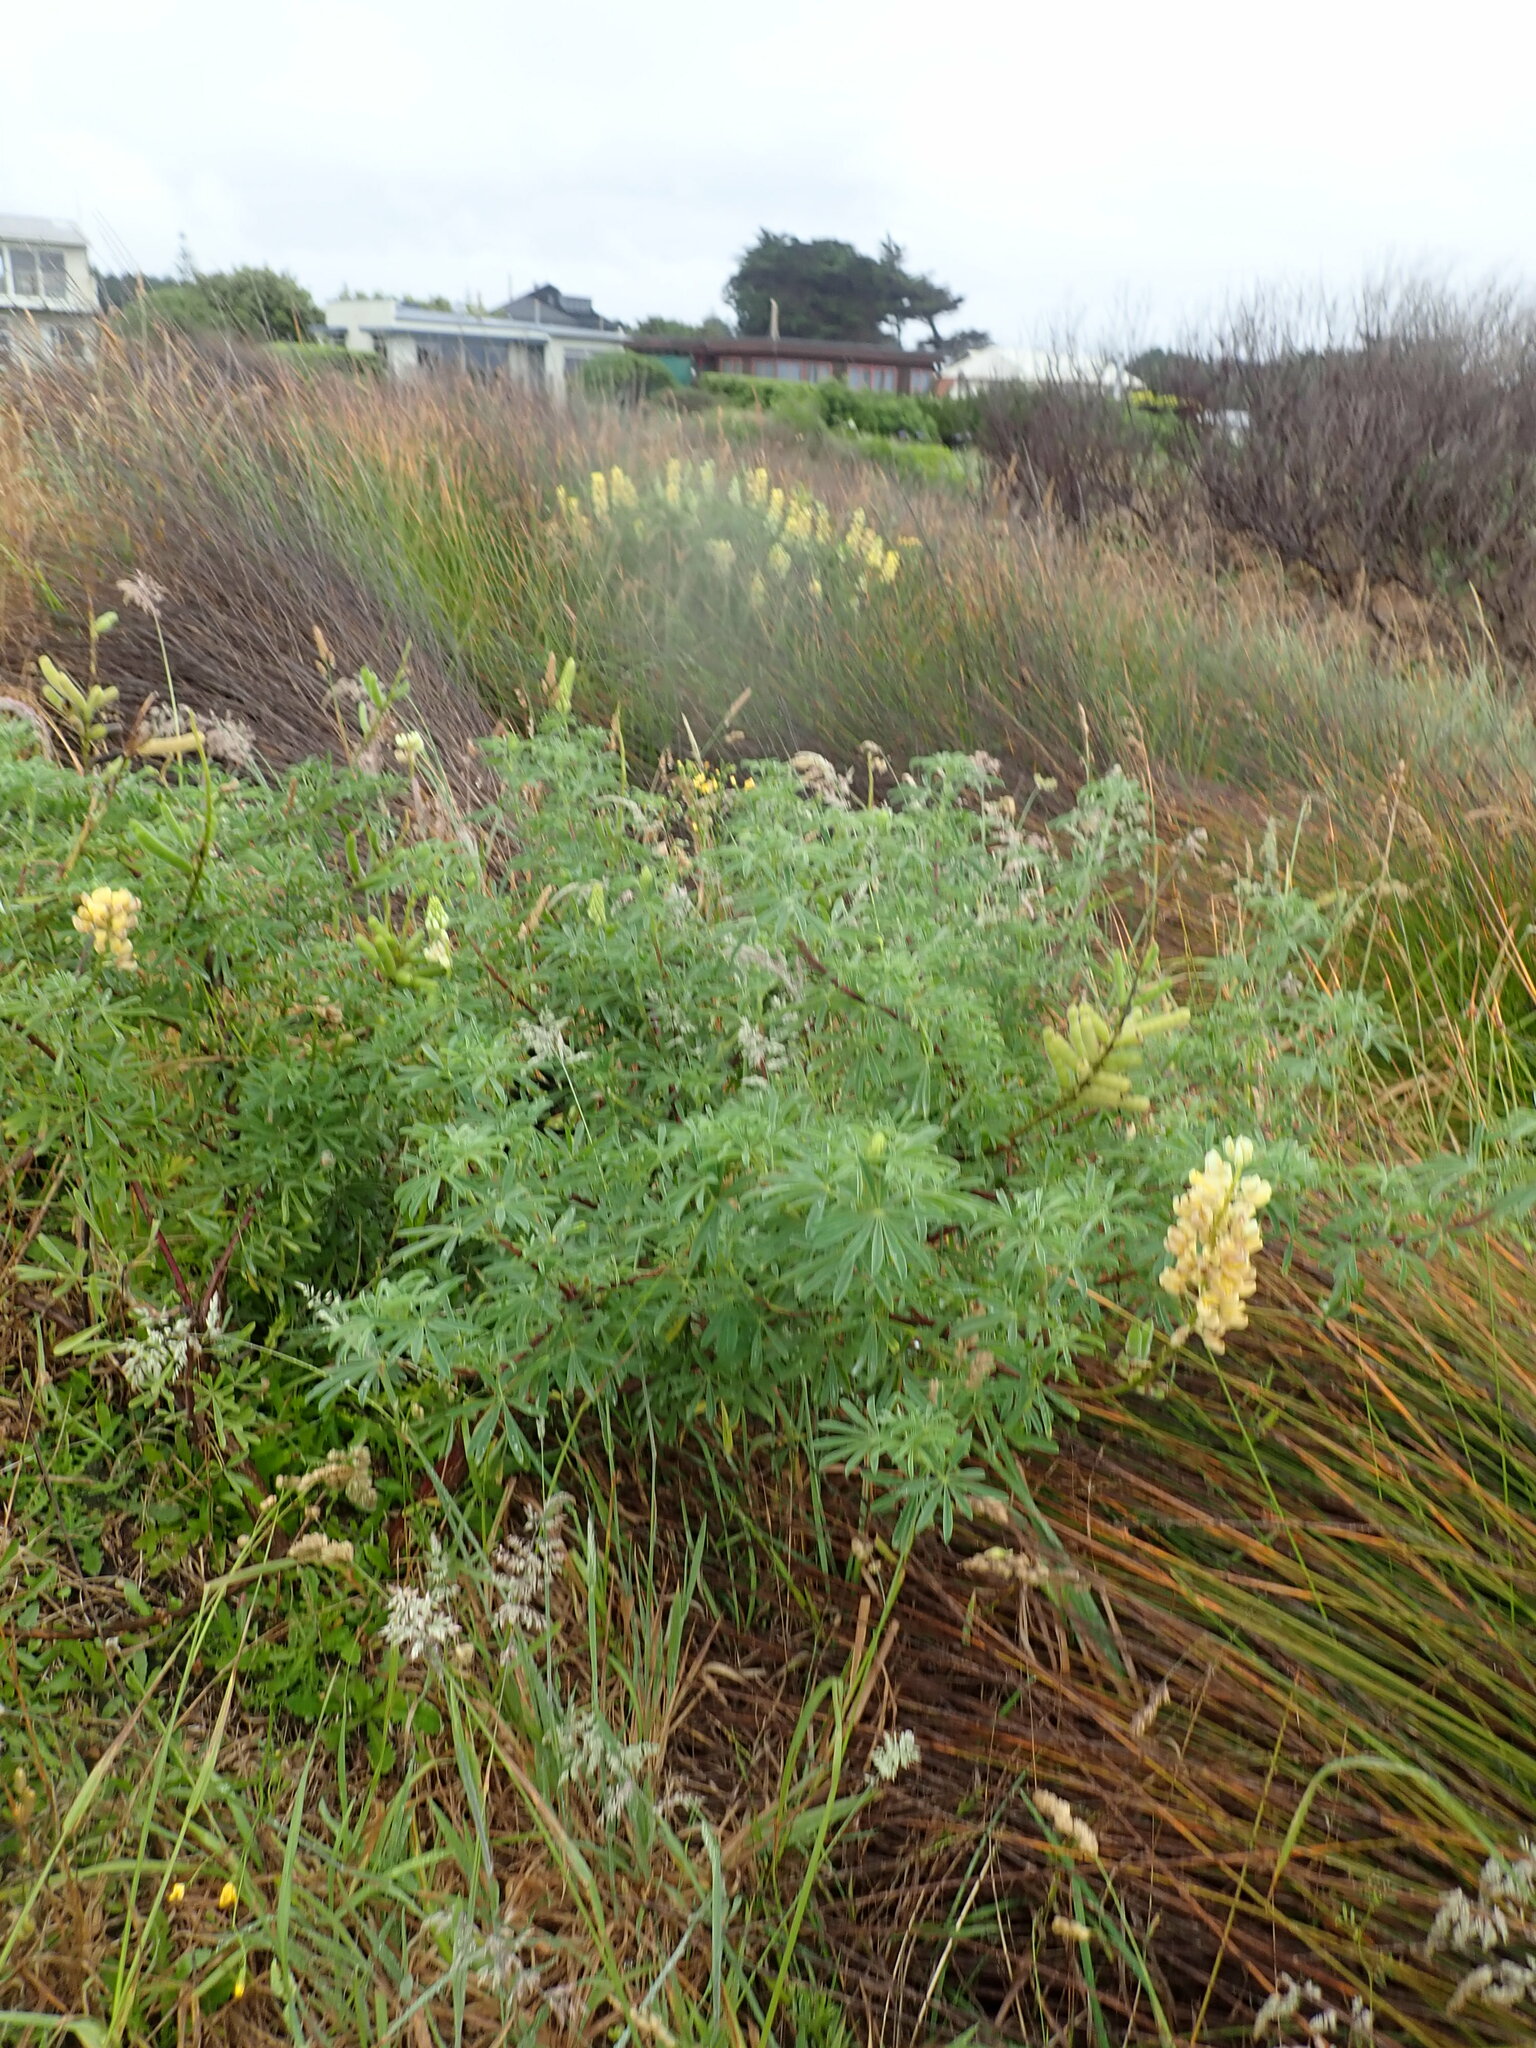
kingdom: Plantae
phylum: Tracheophyta
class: Magnoliopsida
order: Fabales
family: Fabaceae
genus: Lupinus
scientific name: Lupinus arboreus
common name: Yellow bush lupine
